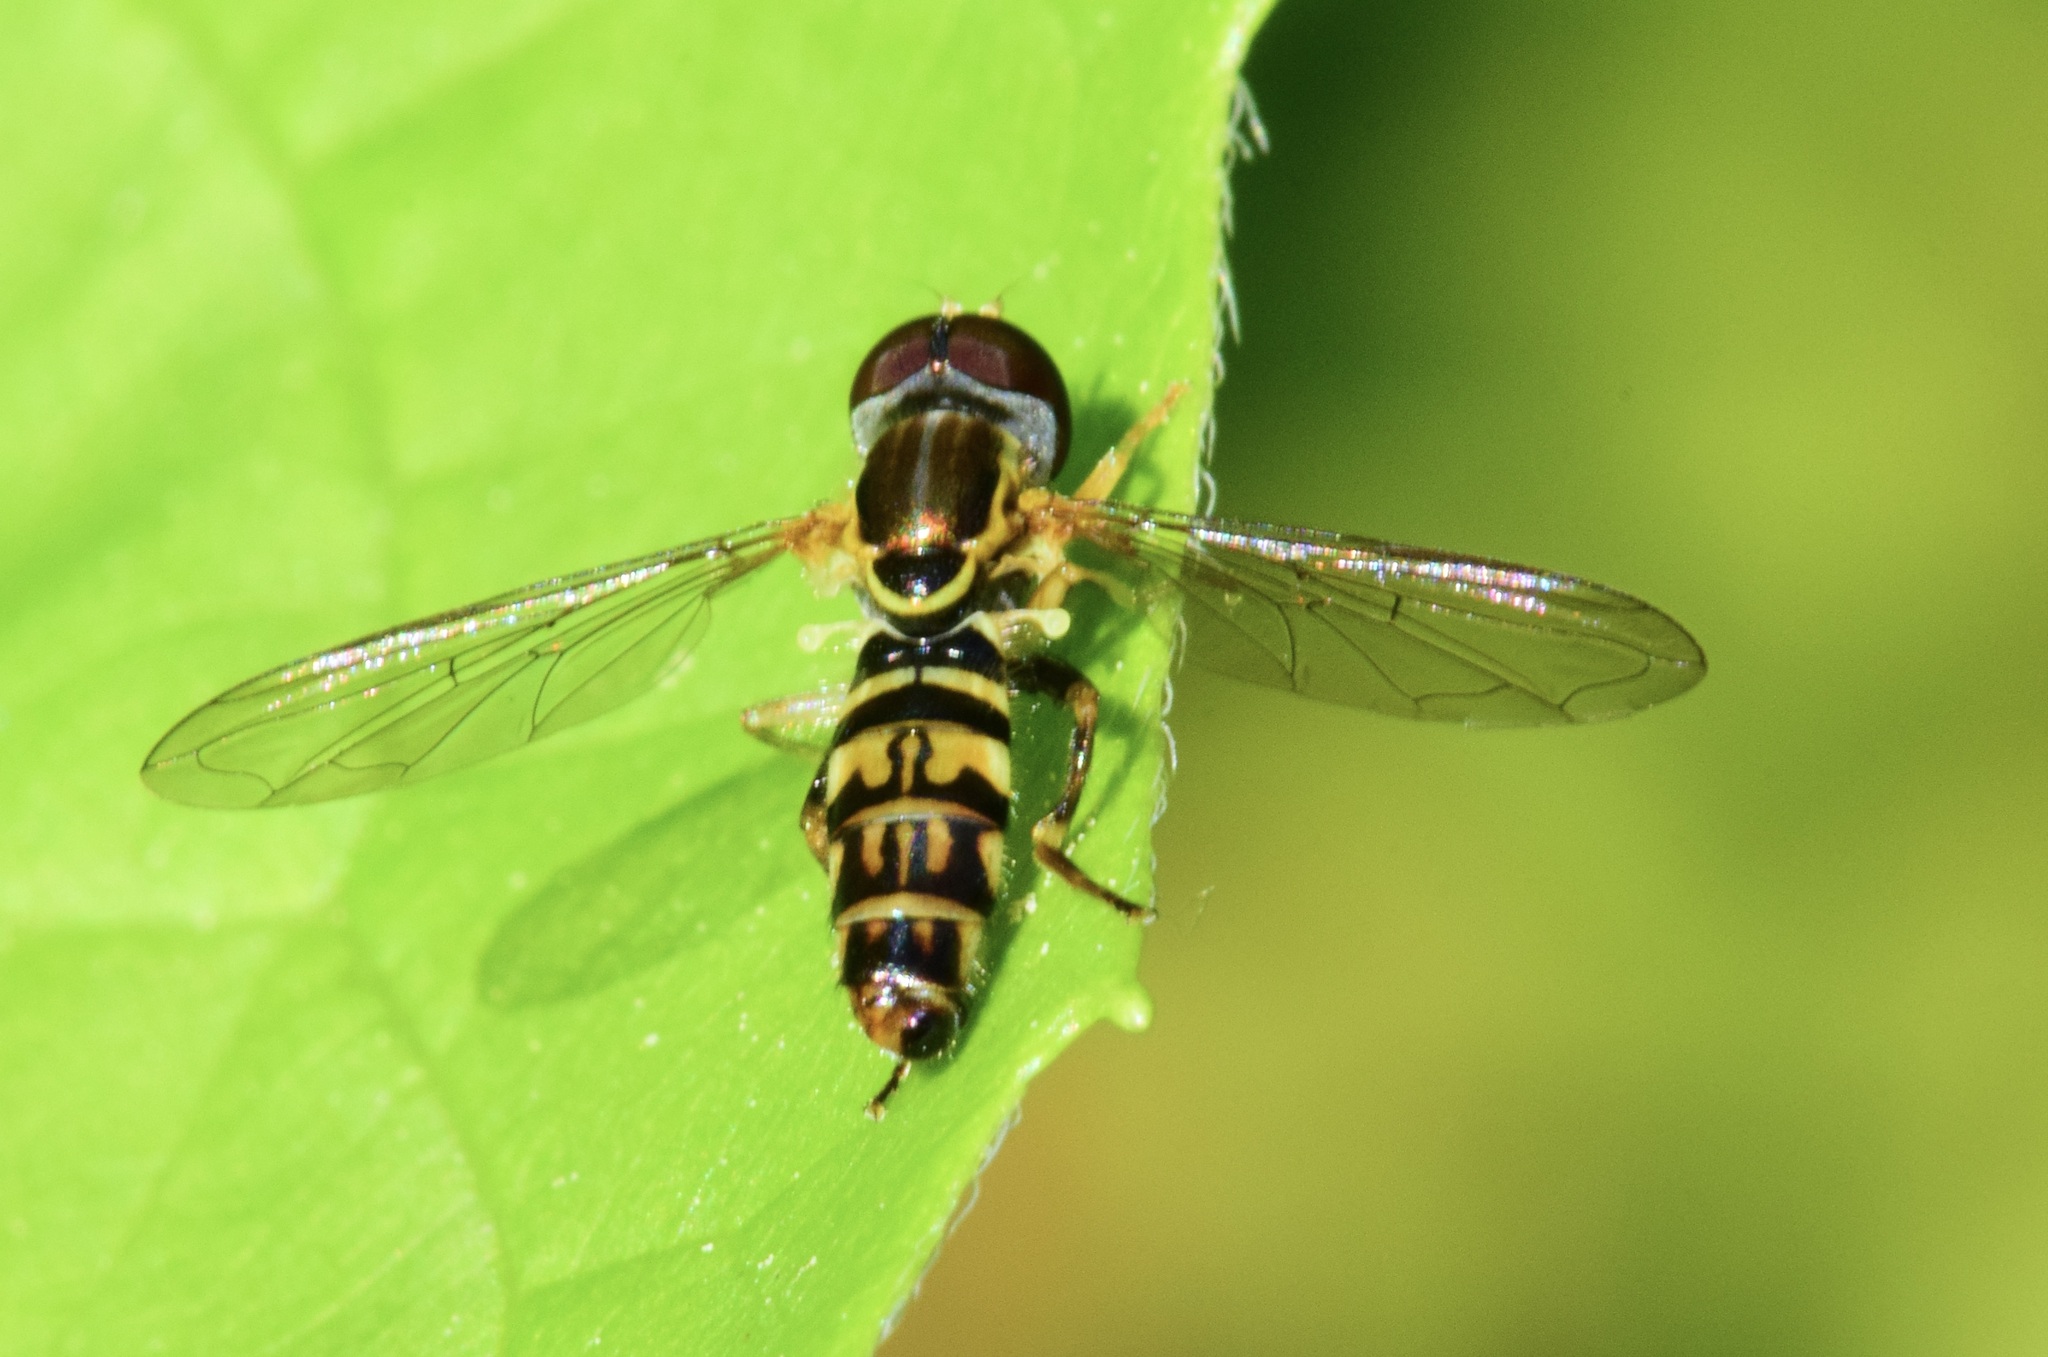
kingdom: Animalia
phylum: Arthropoda
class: Insecta
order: Diptera
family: Syrphidae
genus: Toxomerus
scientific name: Toxomerus geminatus
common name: Eastern calligrapher
